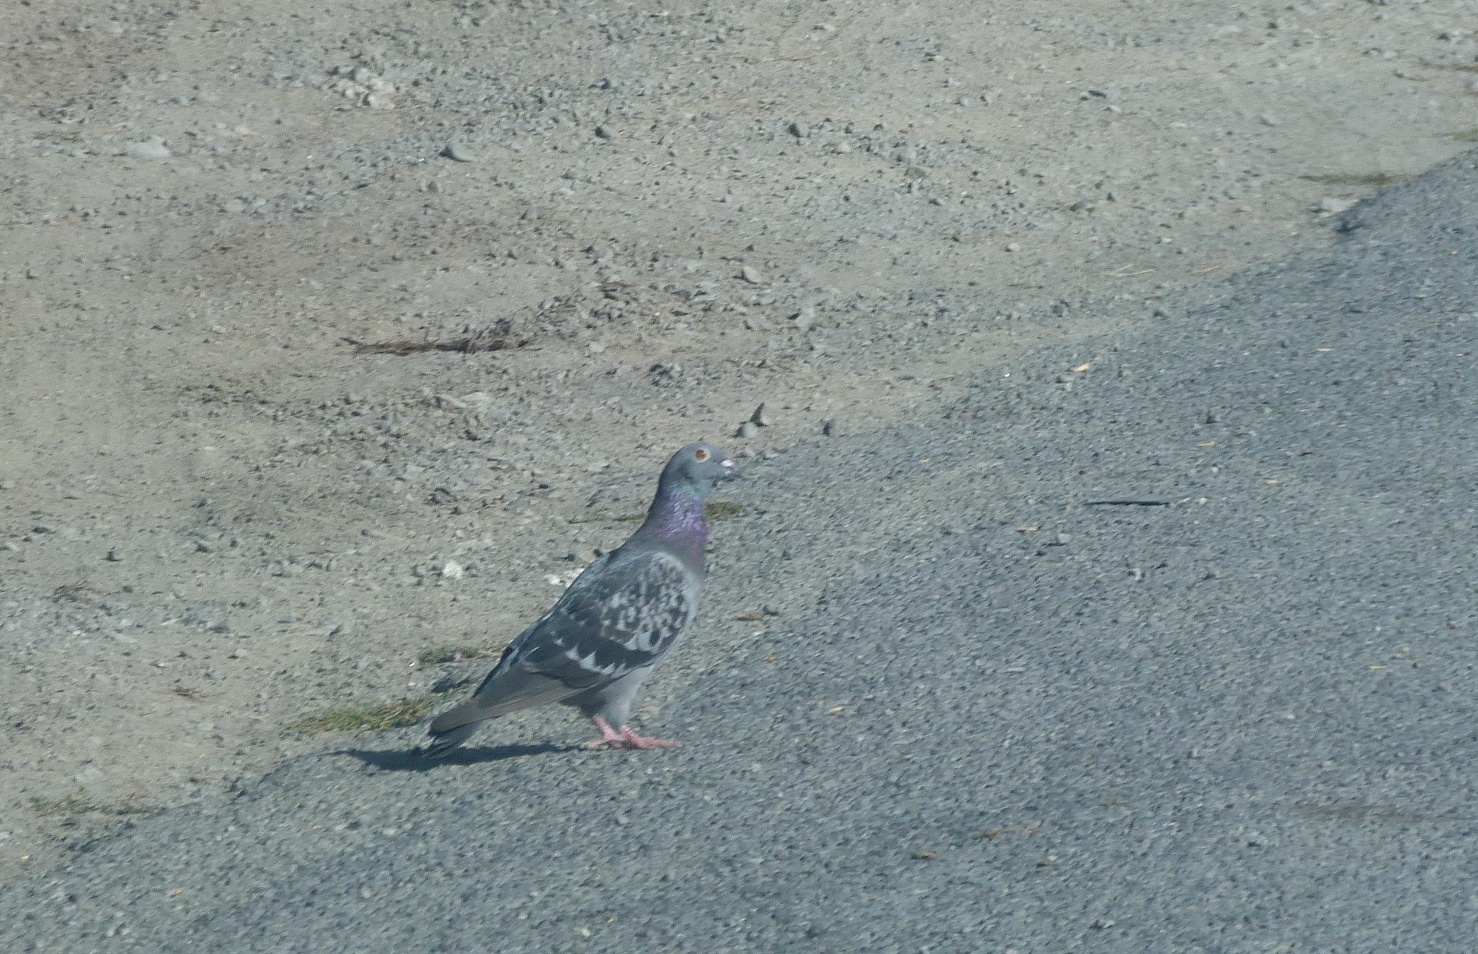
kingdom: Animalia
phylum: Chordata
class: Aves
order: Columbiformes
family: Columbidae
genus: Columba
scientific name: Columba livia
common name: Rock pigeon
